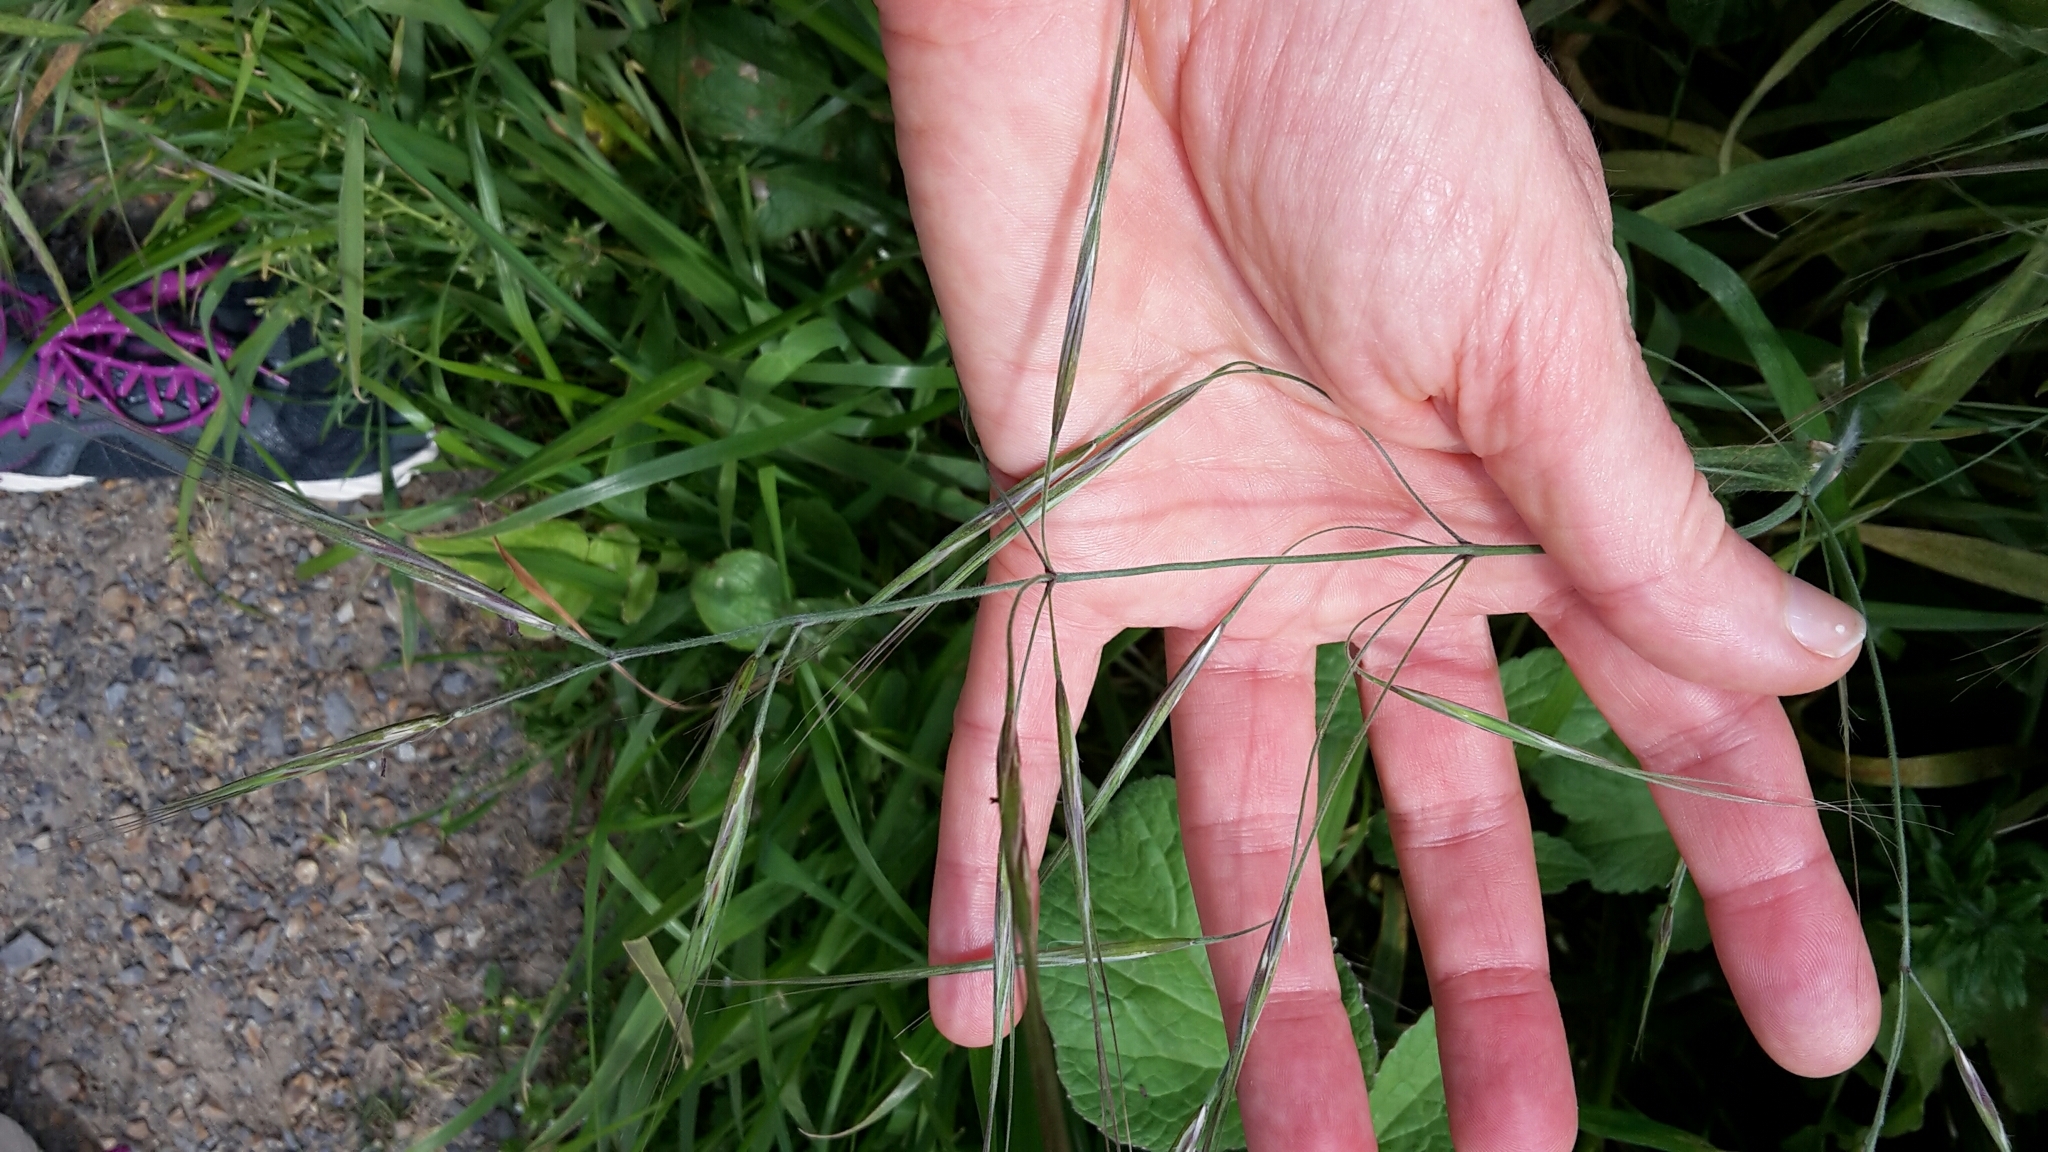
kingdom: Plantae
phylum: Tracheophyta
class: Liliopsida
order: Poales
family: Poaceae
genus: Bromus
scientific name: Bromus diandrus
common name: Ripgut brome
